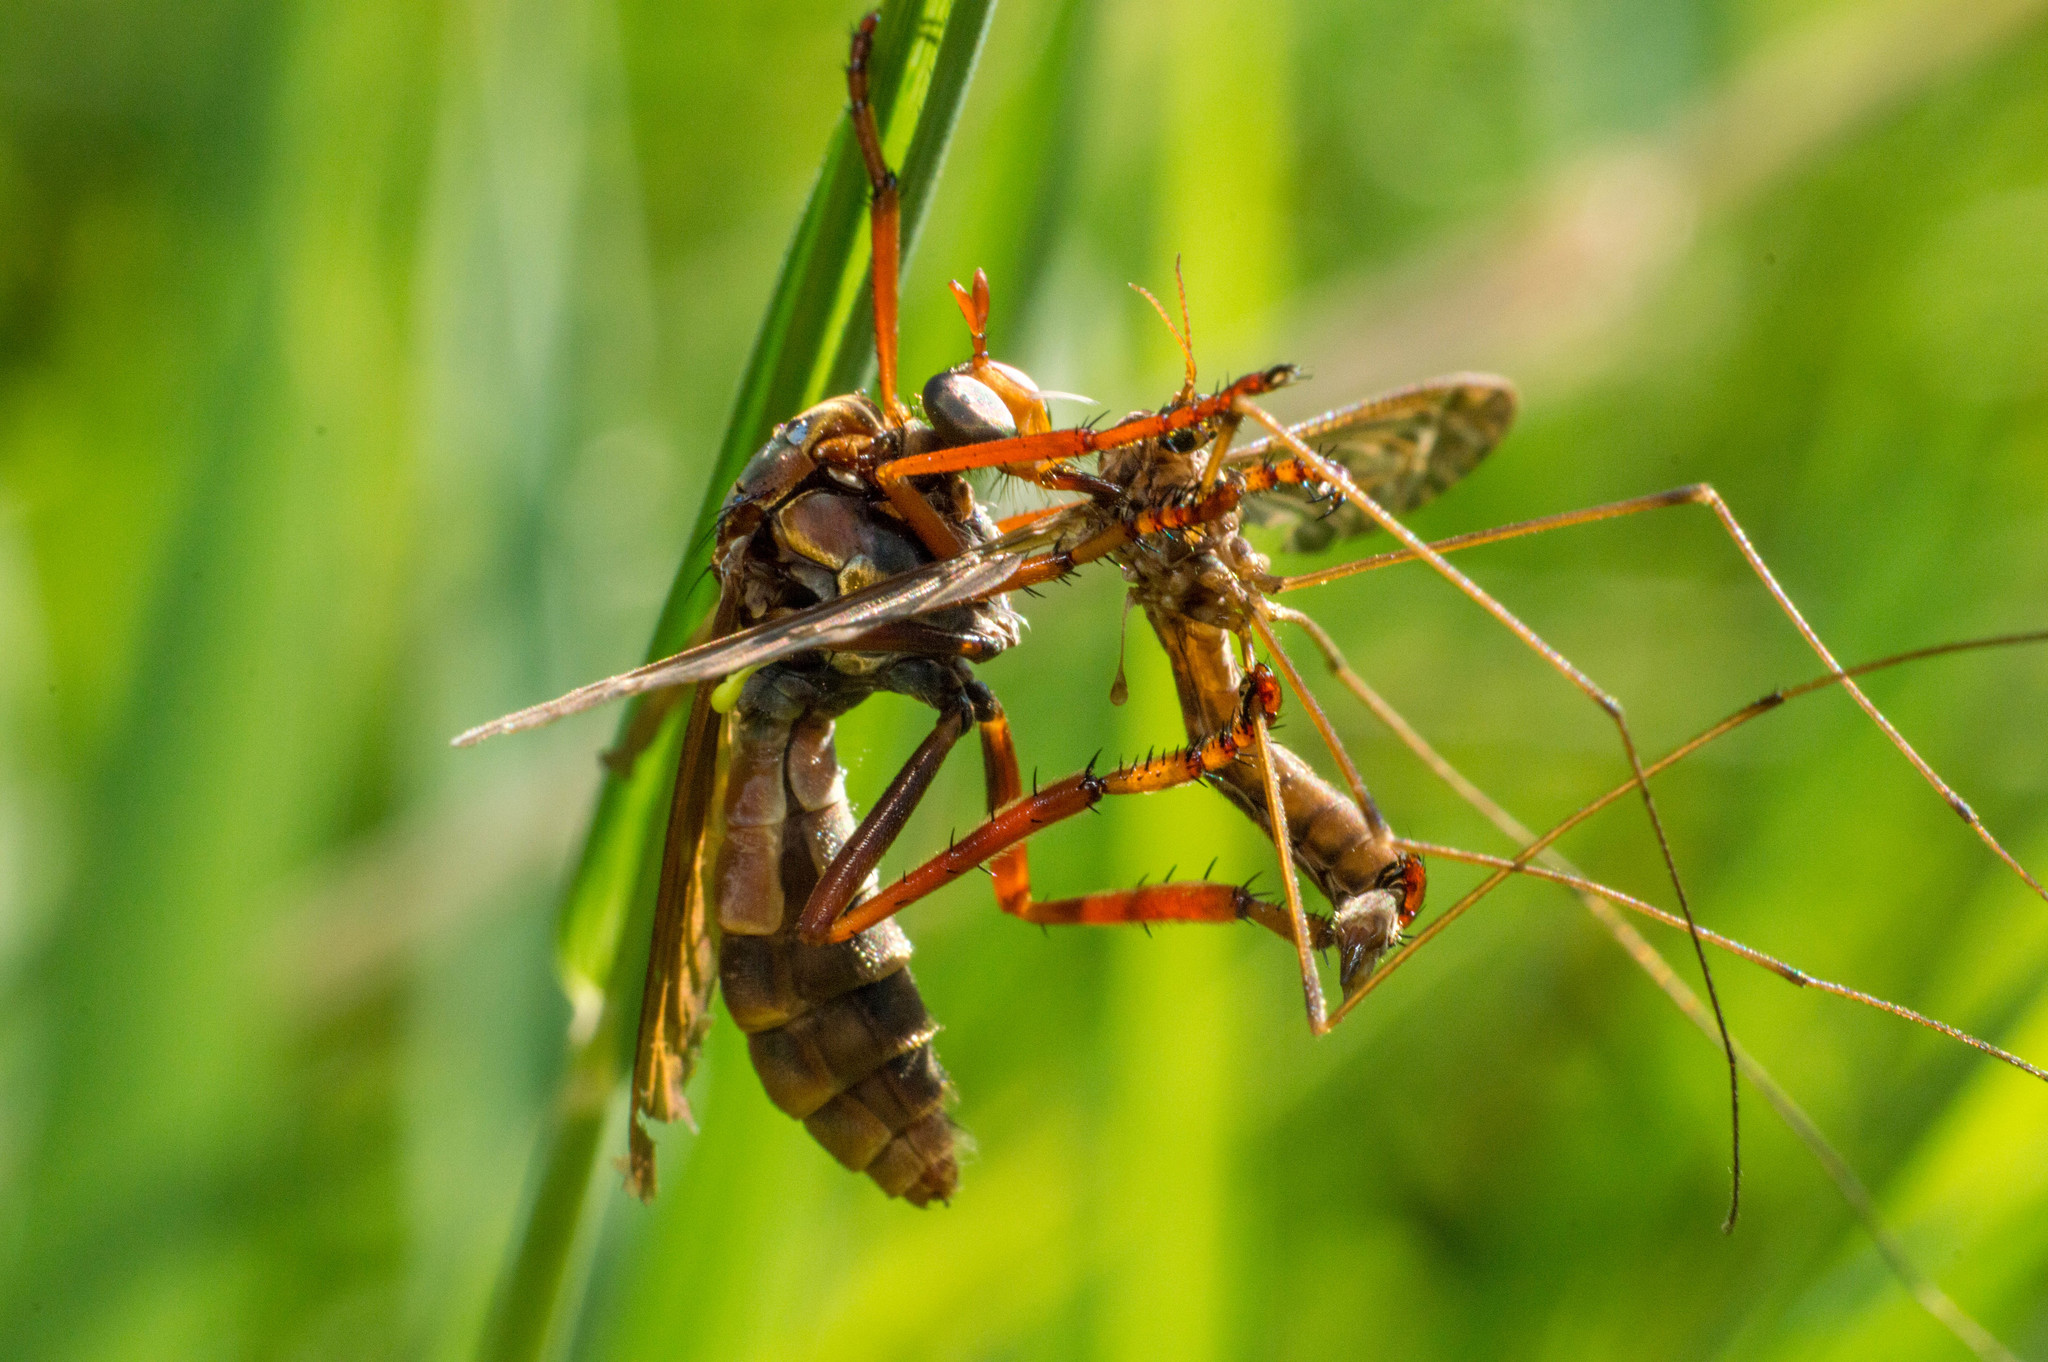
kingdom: Animalia
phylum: Arthropoda
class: Insecta
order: Diptera
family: Asilidae
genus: Blepharepium
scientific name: Blepharepium cajennense
